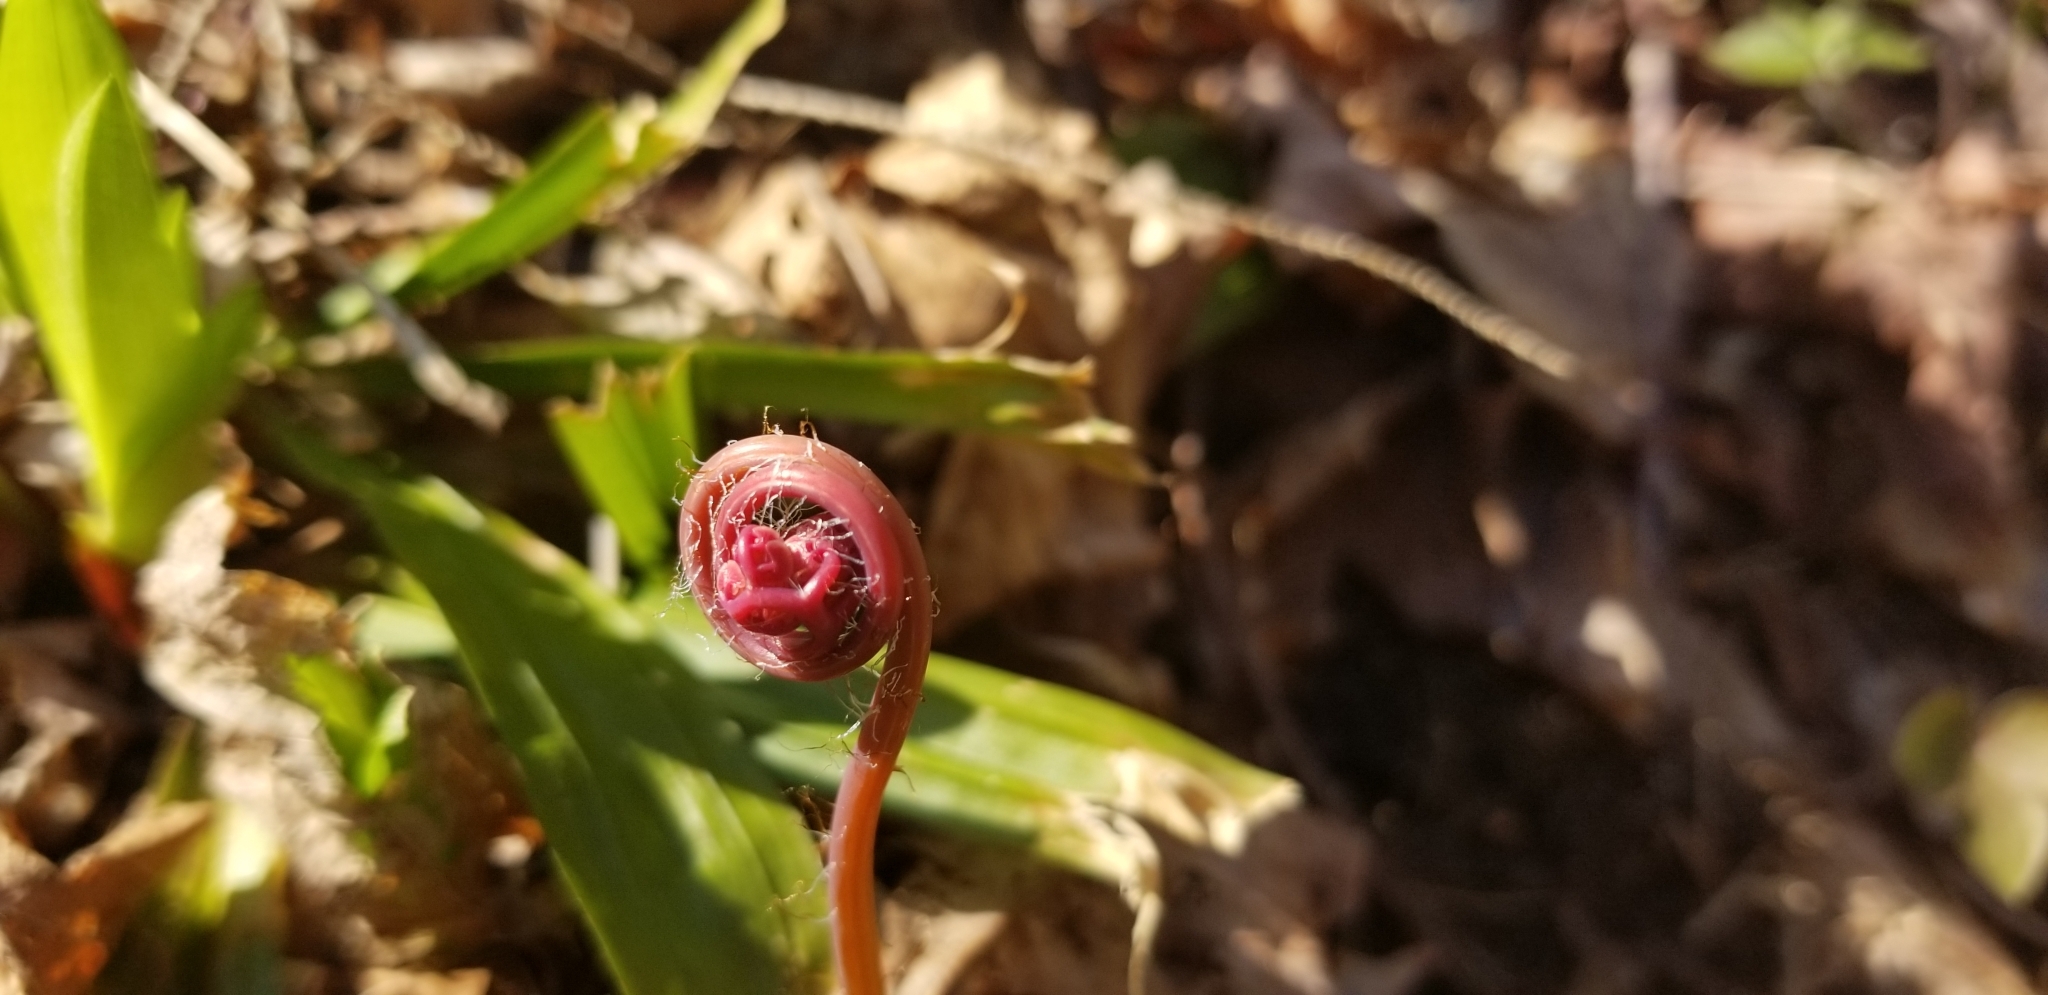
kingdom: Plantae
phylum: Tracheophyta
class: Polypodiopsida
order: Polypodiales
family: Pteridaceae
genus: Adiantum
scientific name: Adiantum pedatum
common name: Five-finger fern
